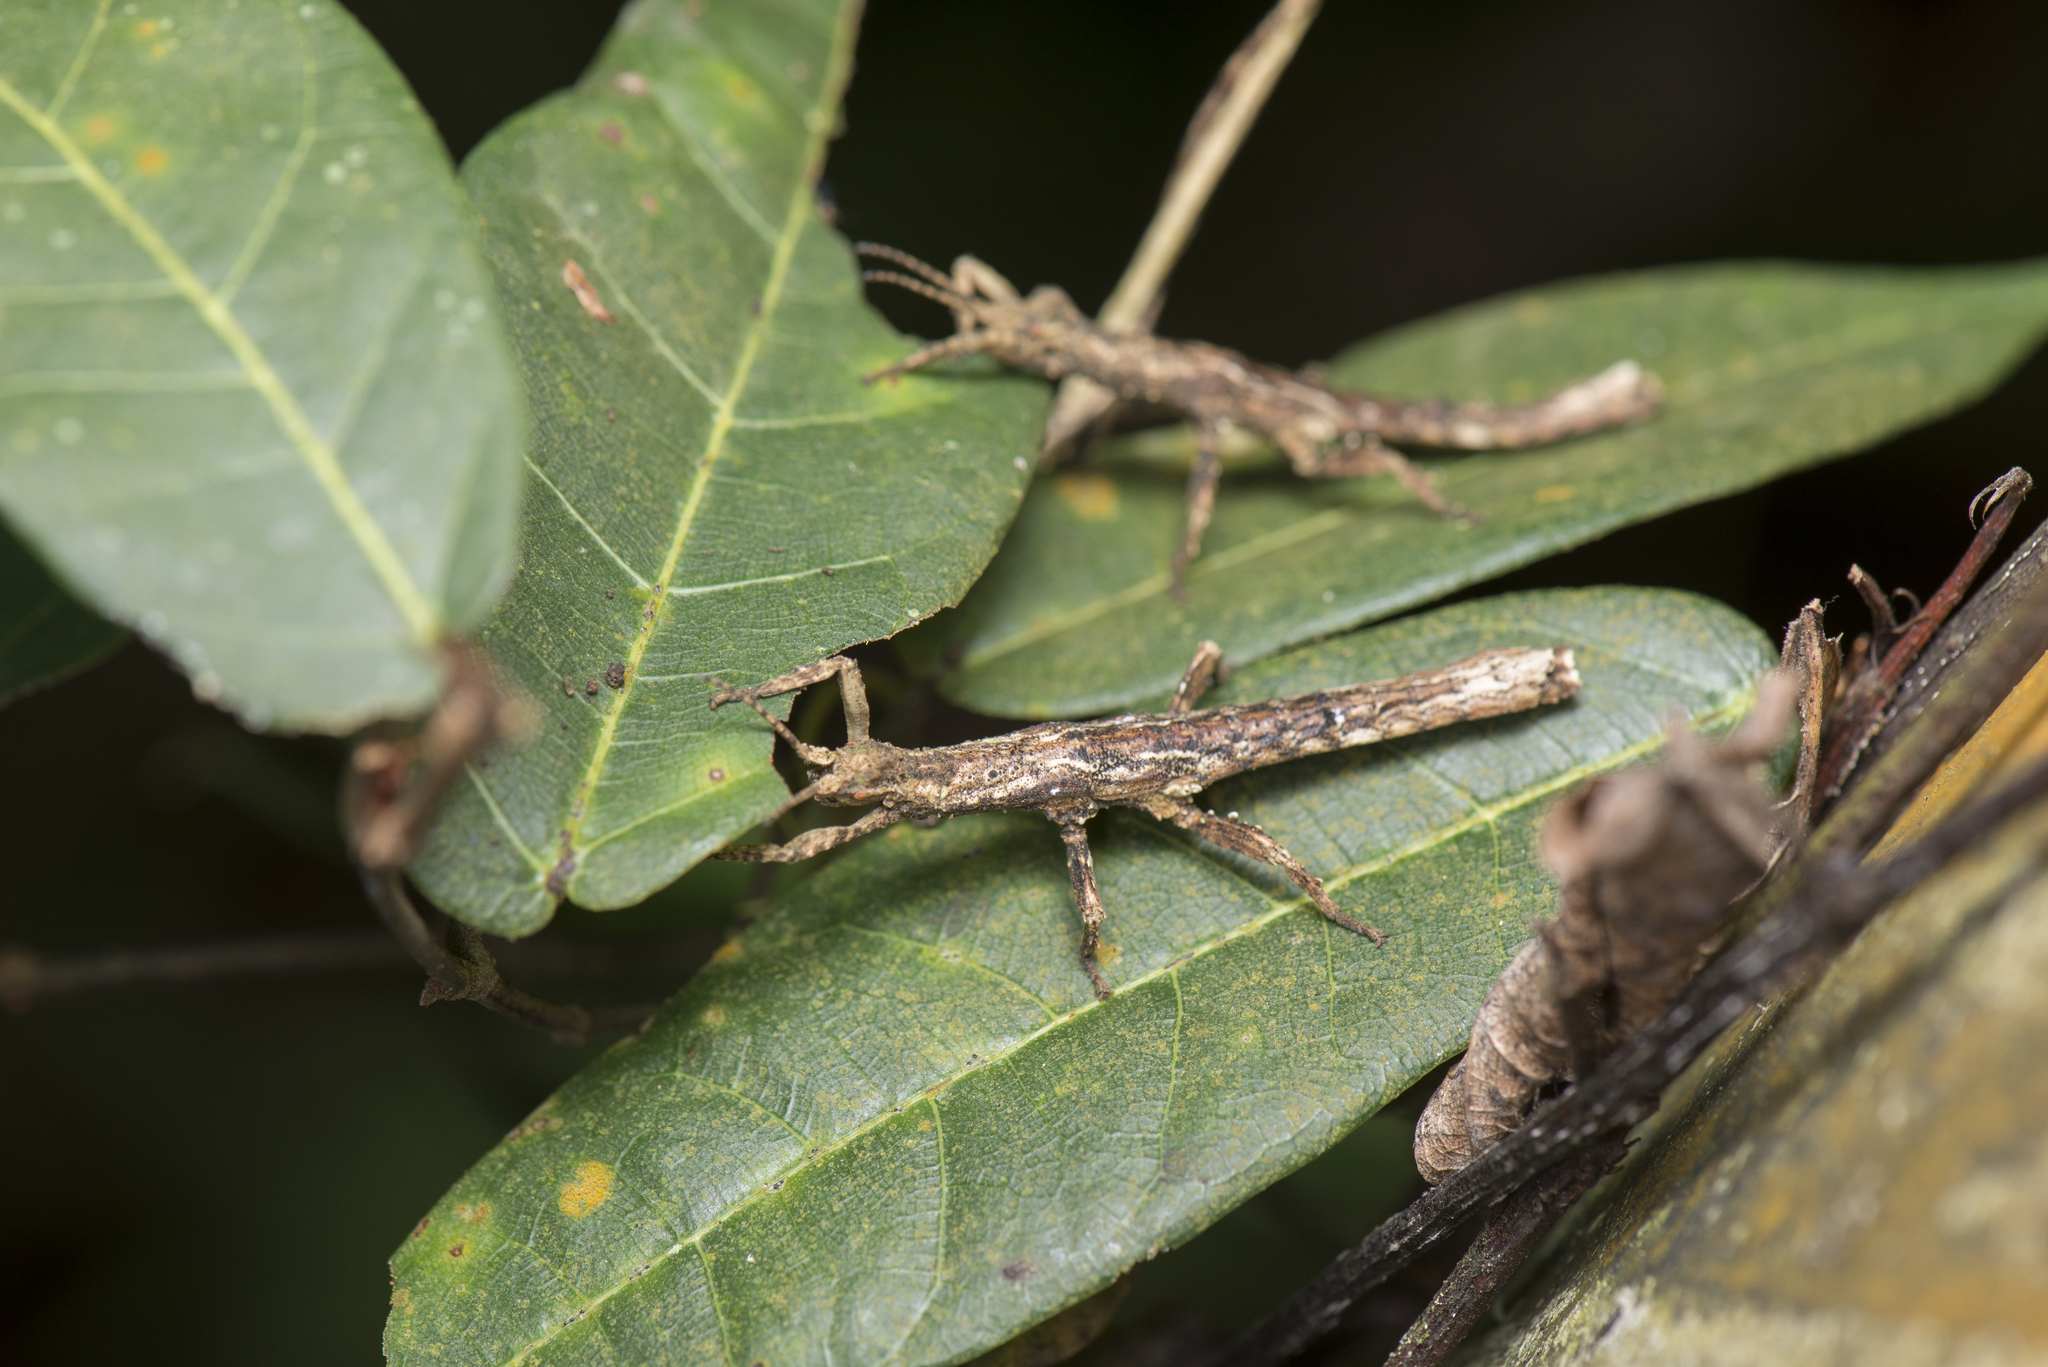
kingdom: Animalia
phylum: Arthropoda
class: Insecta
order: Phasmida
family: Heteropterygidae
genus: Orestes
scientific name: Orestes shirakii
